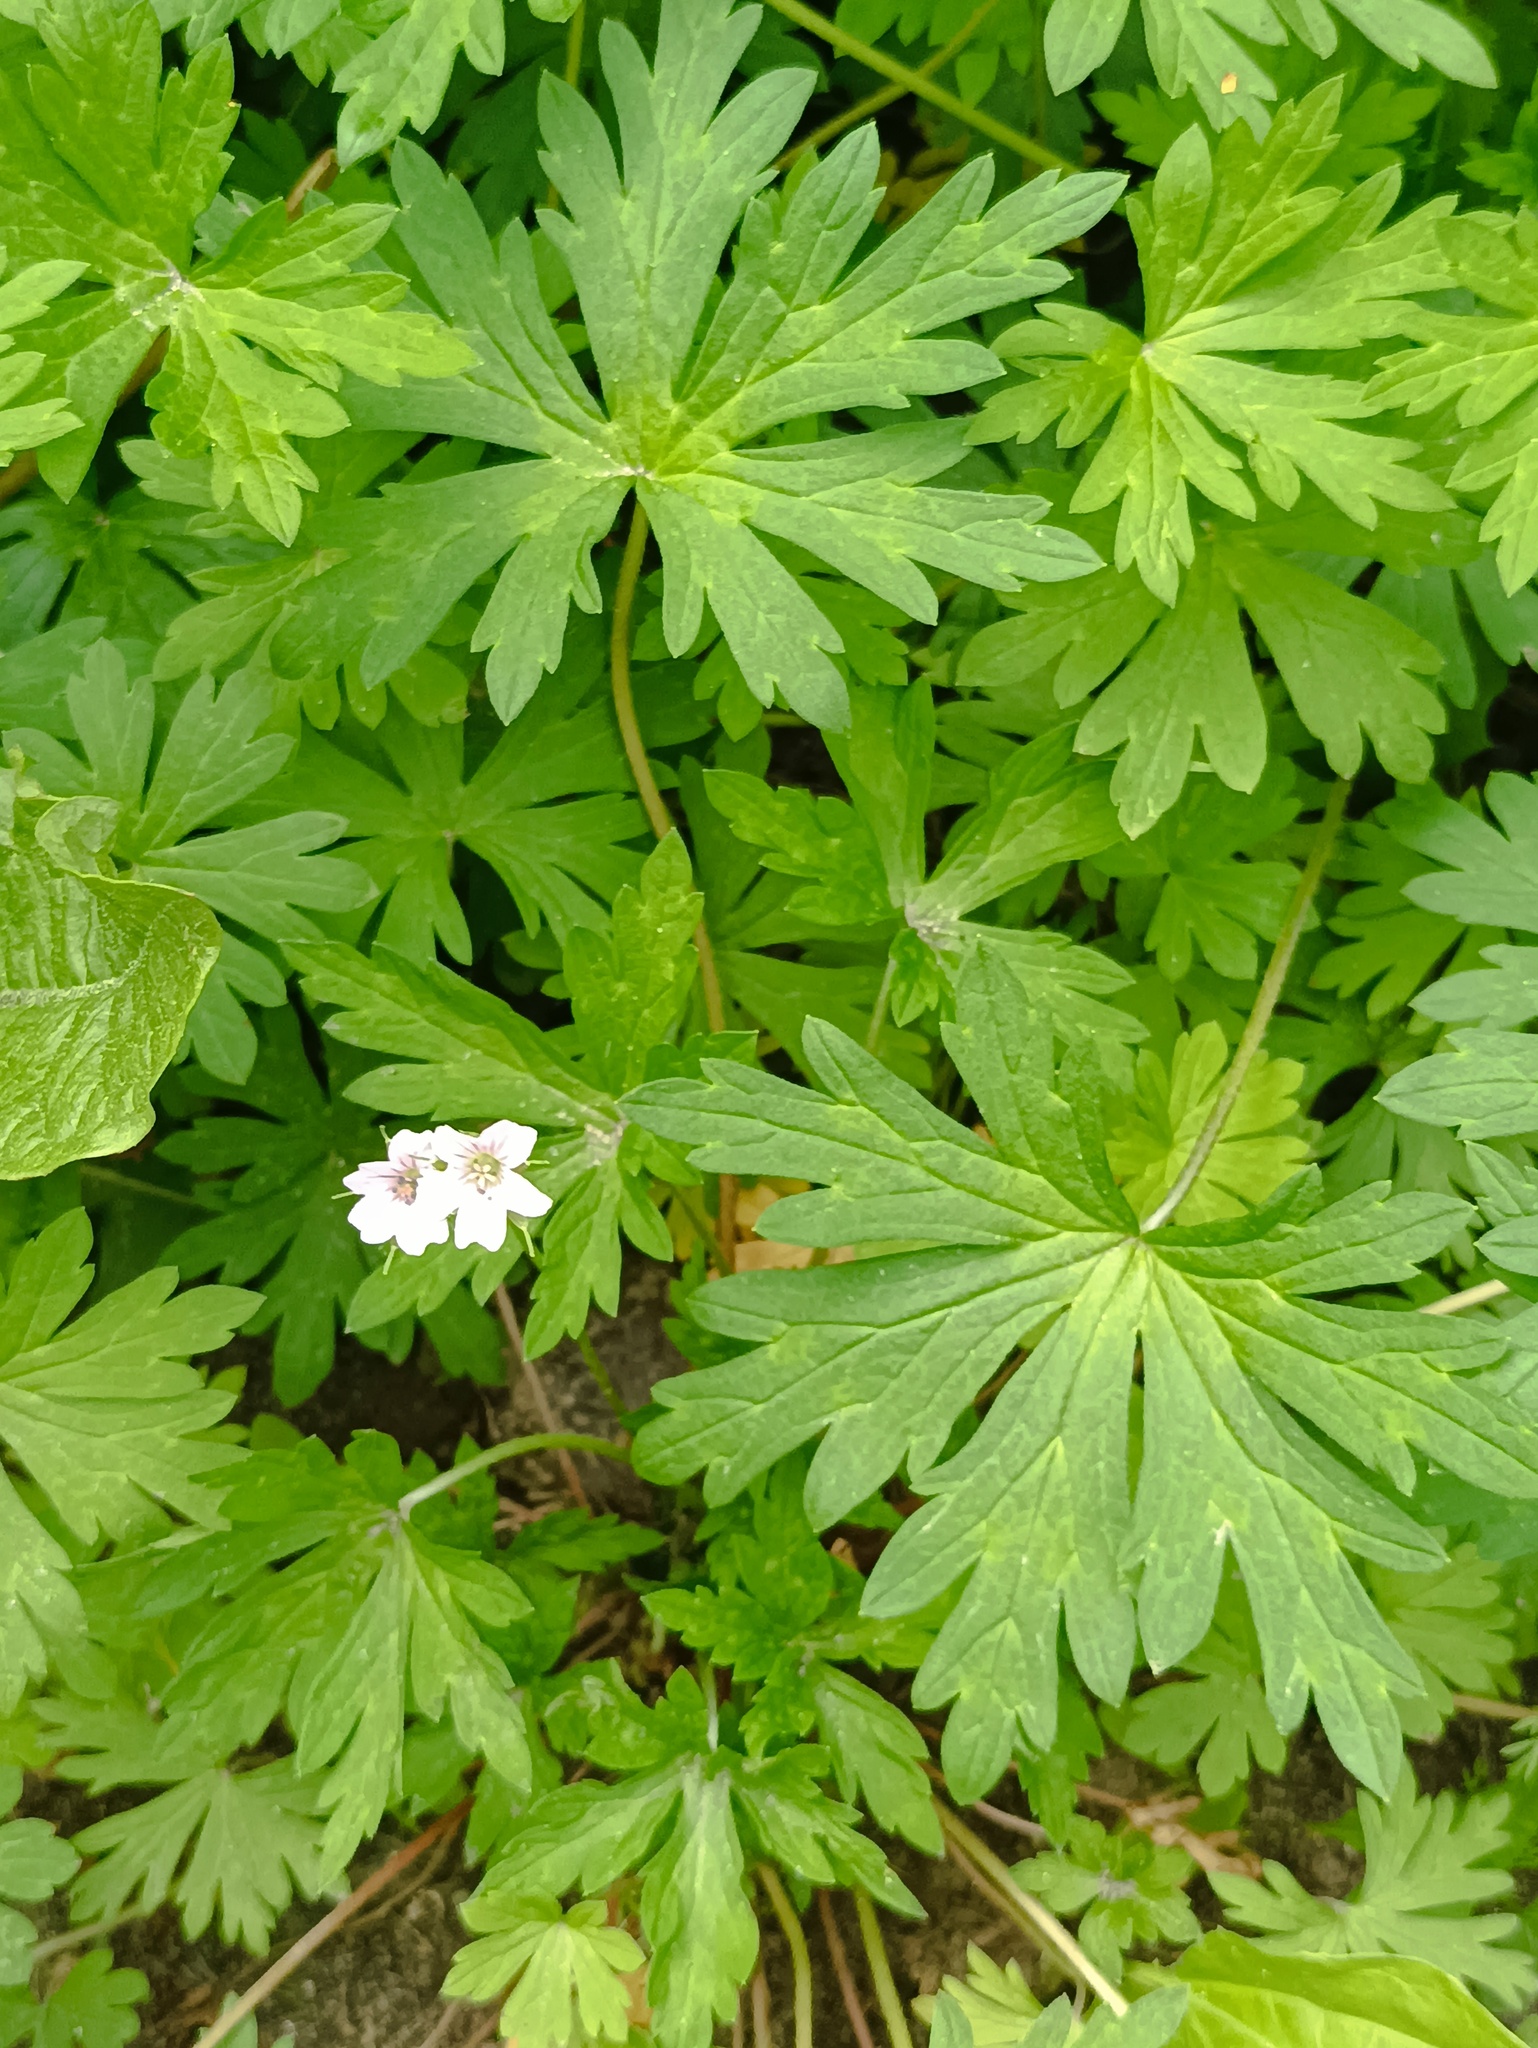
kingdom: Plantae
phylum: Tracheophyta
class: Magnoliopsida
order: Geraniales
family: Geraniaceae
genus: Geranium
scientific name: Geranium sibiricum
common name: Siberian crane's-bill
